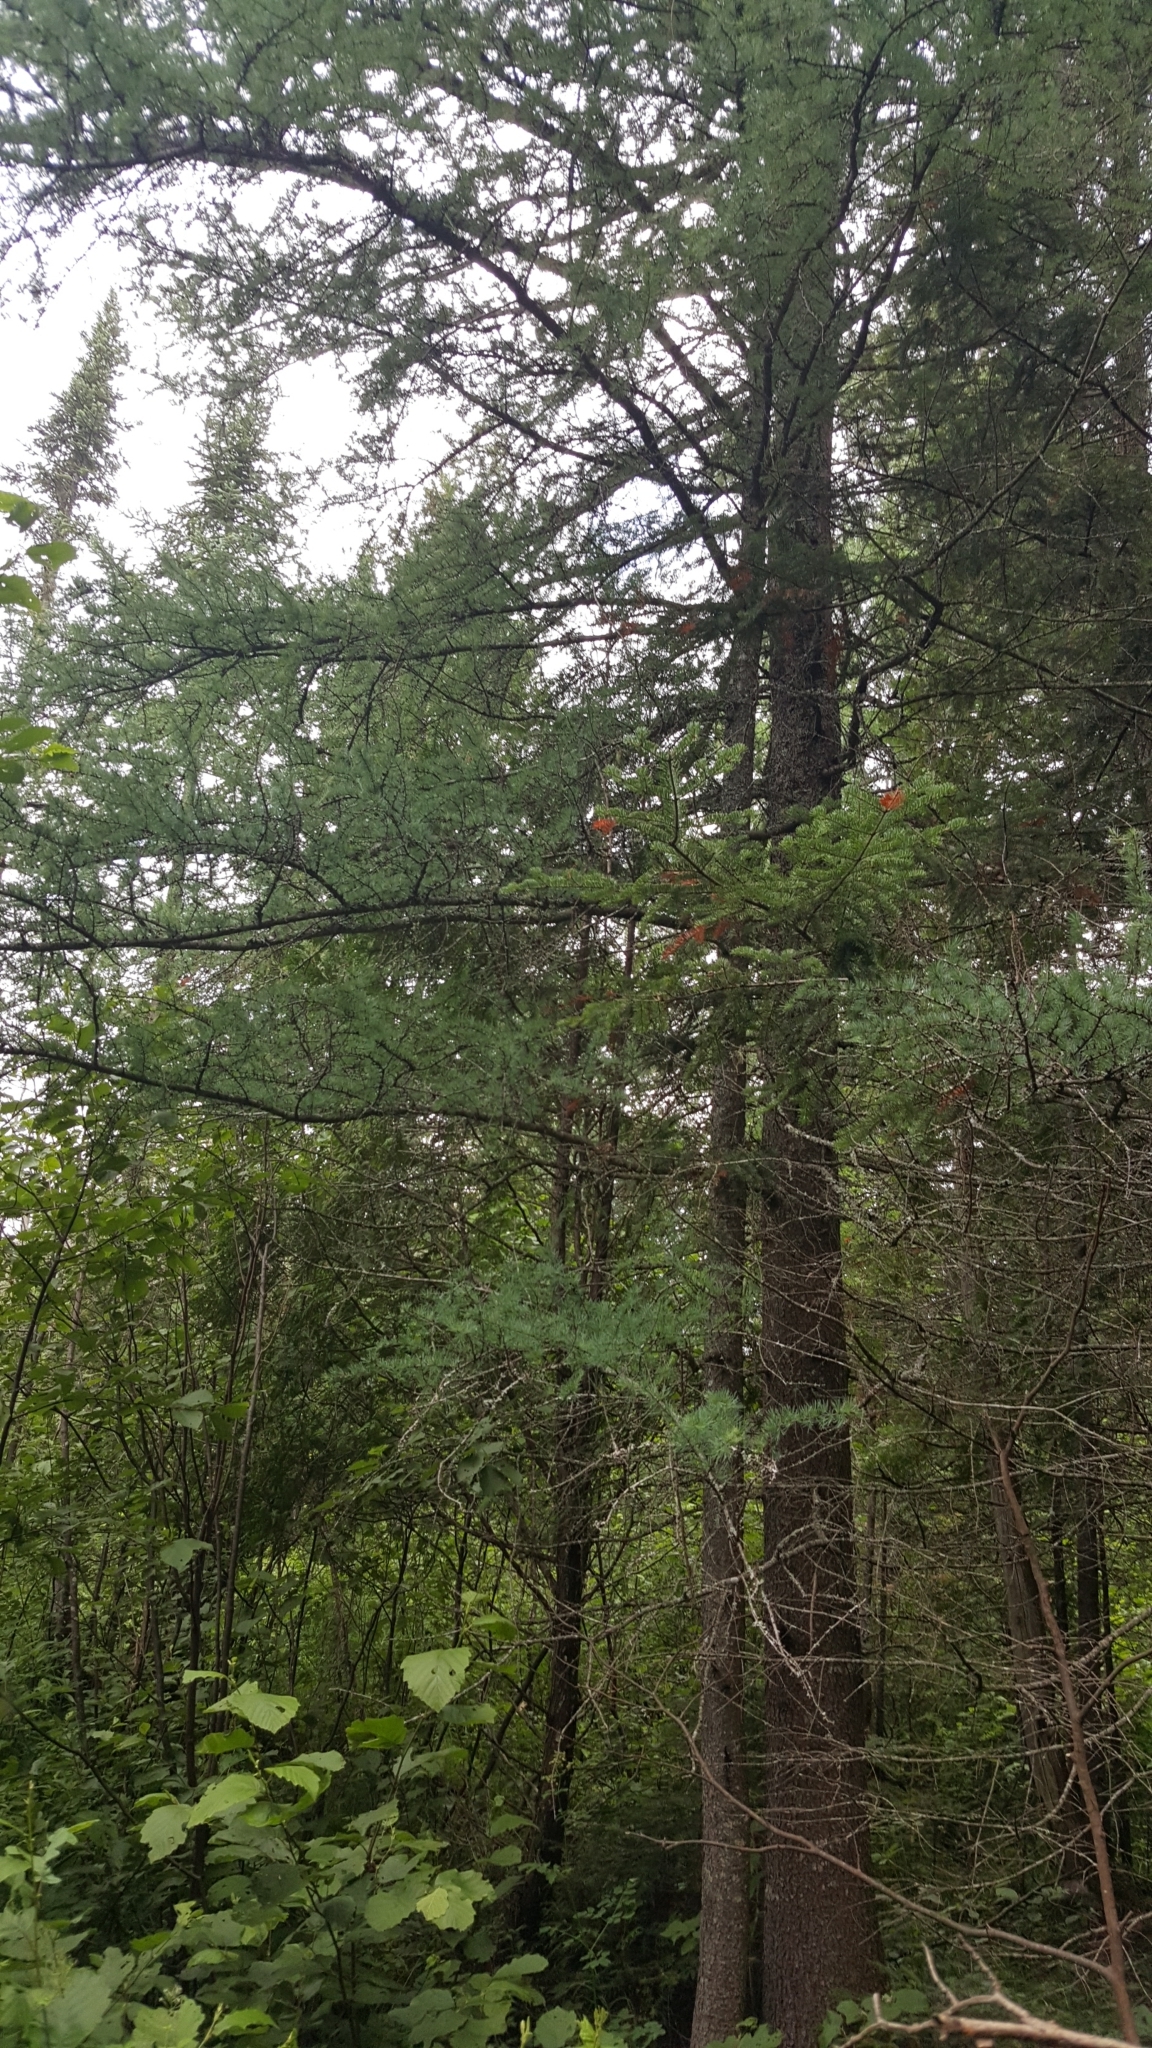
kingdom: Plantae
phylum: Tracheophyta
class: Pinopsida
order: Pinales
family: Pinaceae
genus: Larix
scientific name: Larix laricina
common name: American larch
